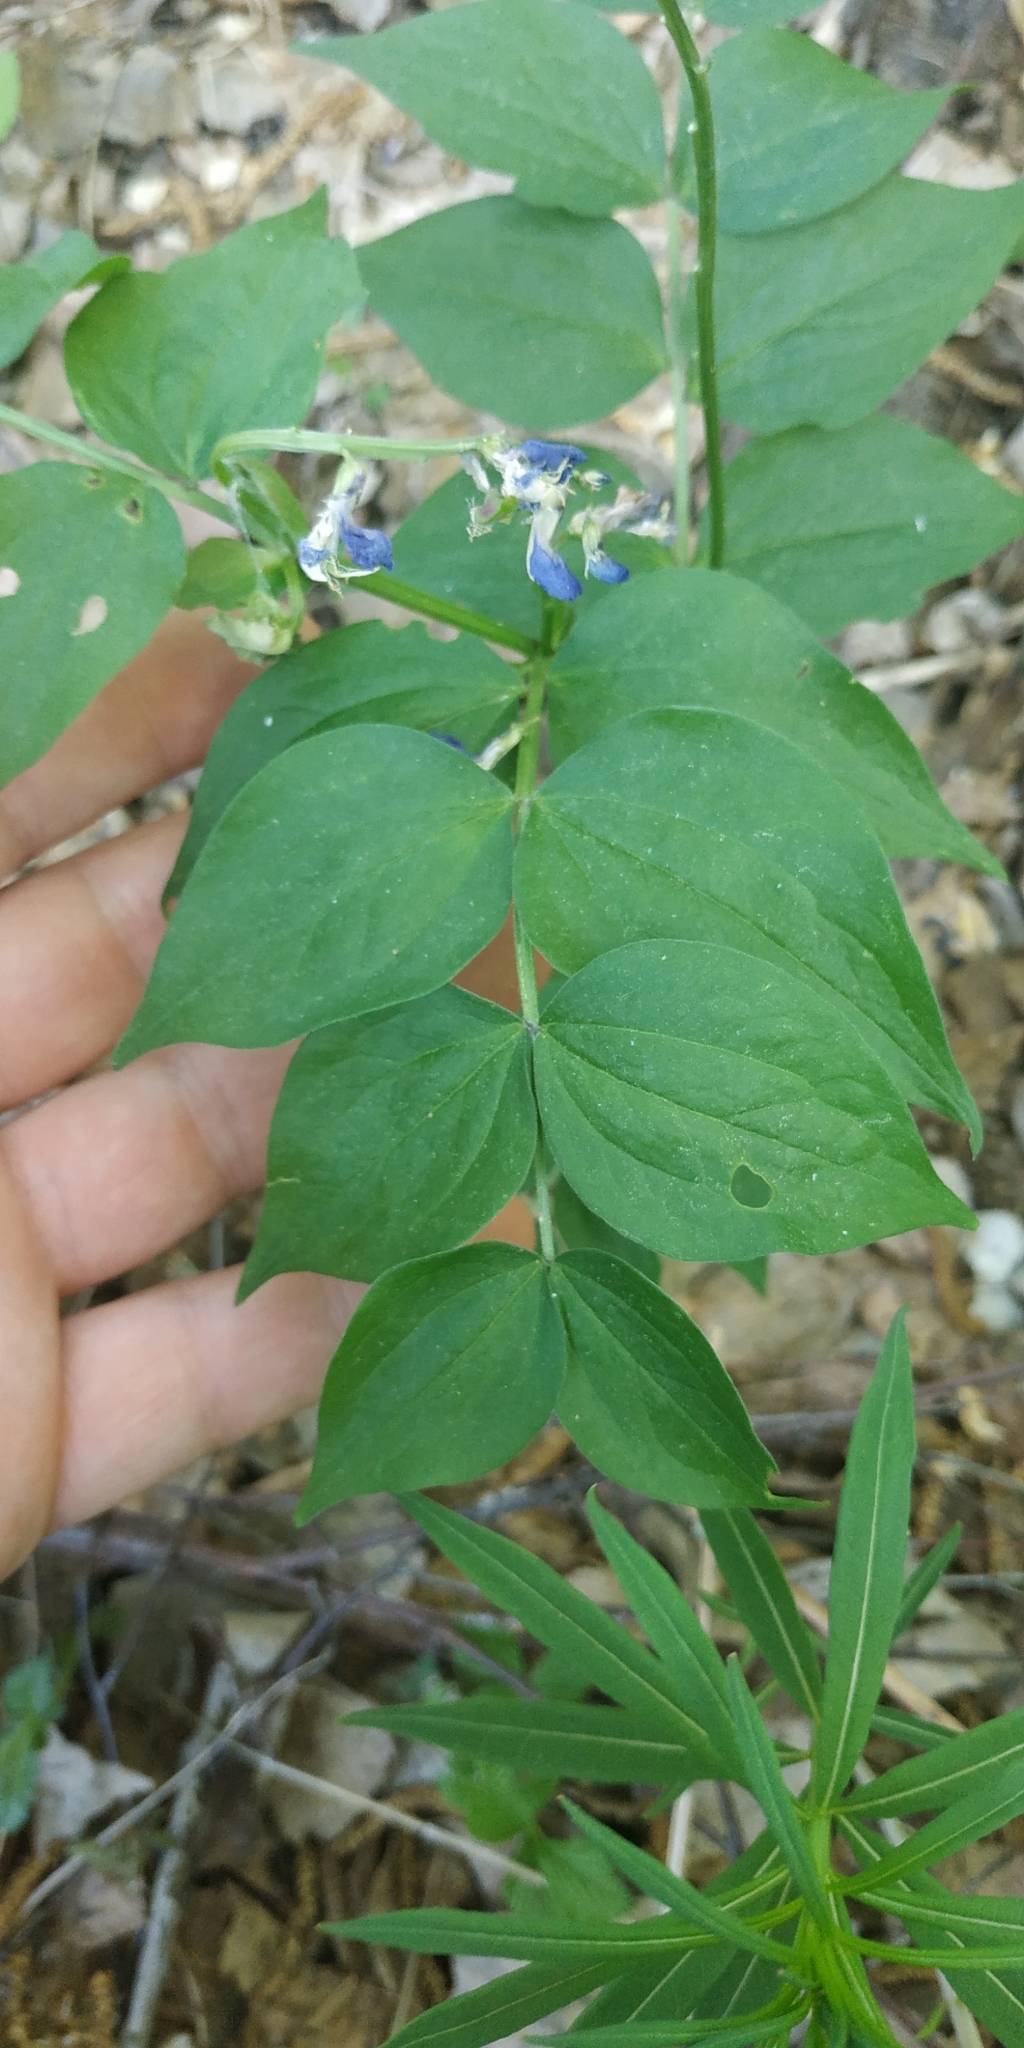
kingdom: Plantae
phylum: Tracheophyta
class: Magnoliopsida
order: Fabales
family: Fabaceae
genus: Lathyrus
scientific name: Lathyrus vernus
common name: Spring pea
